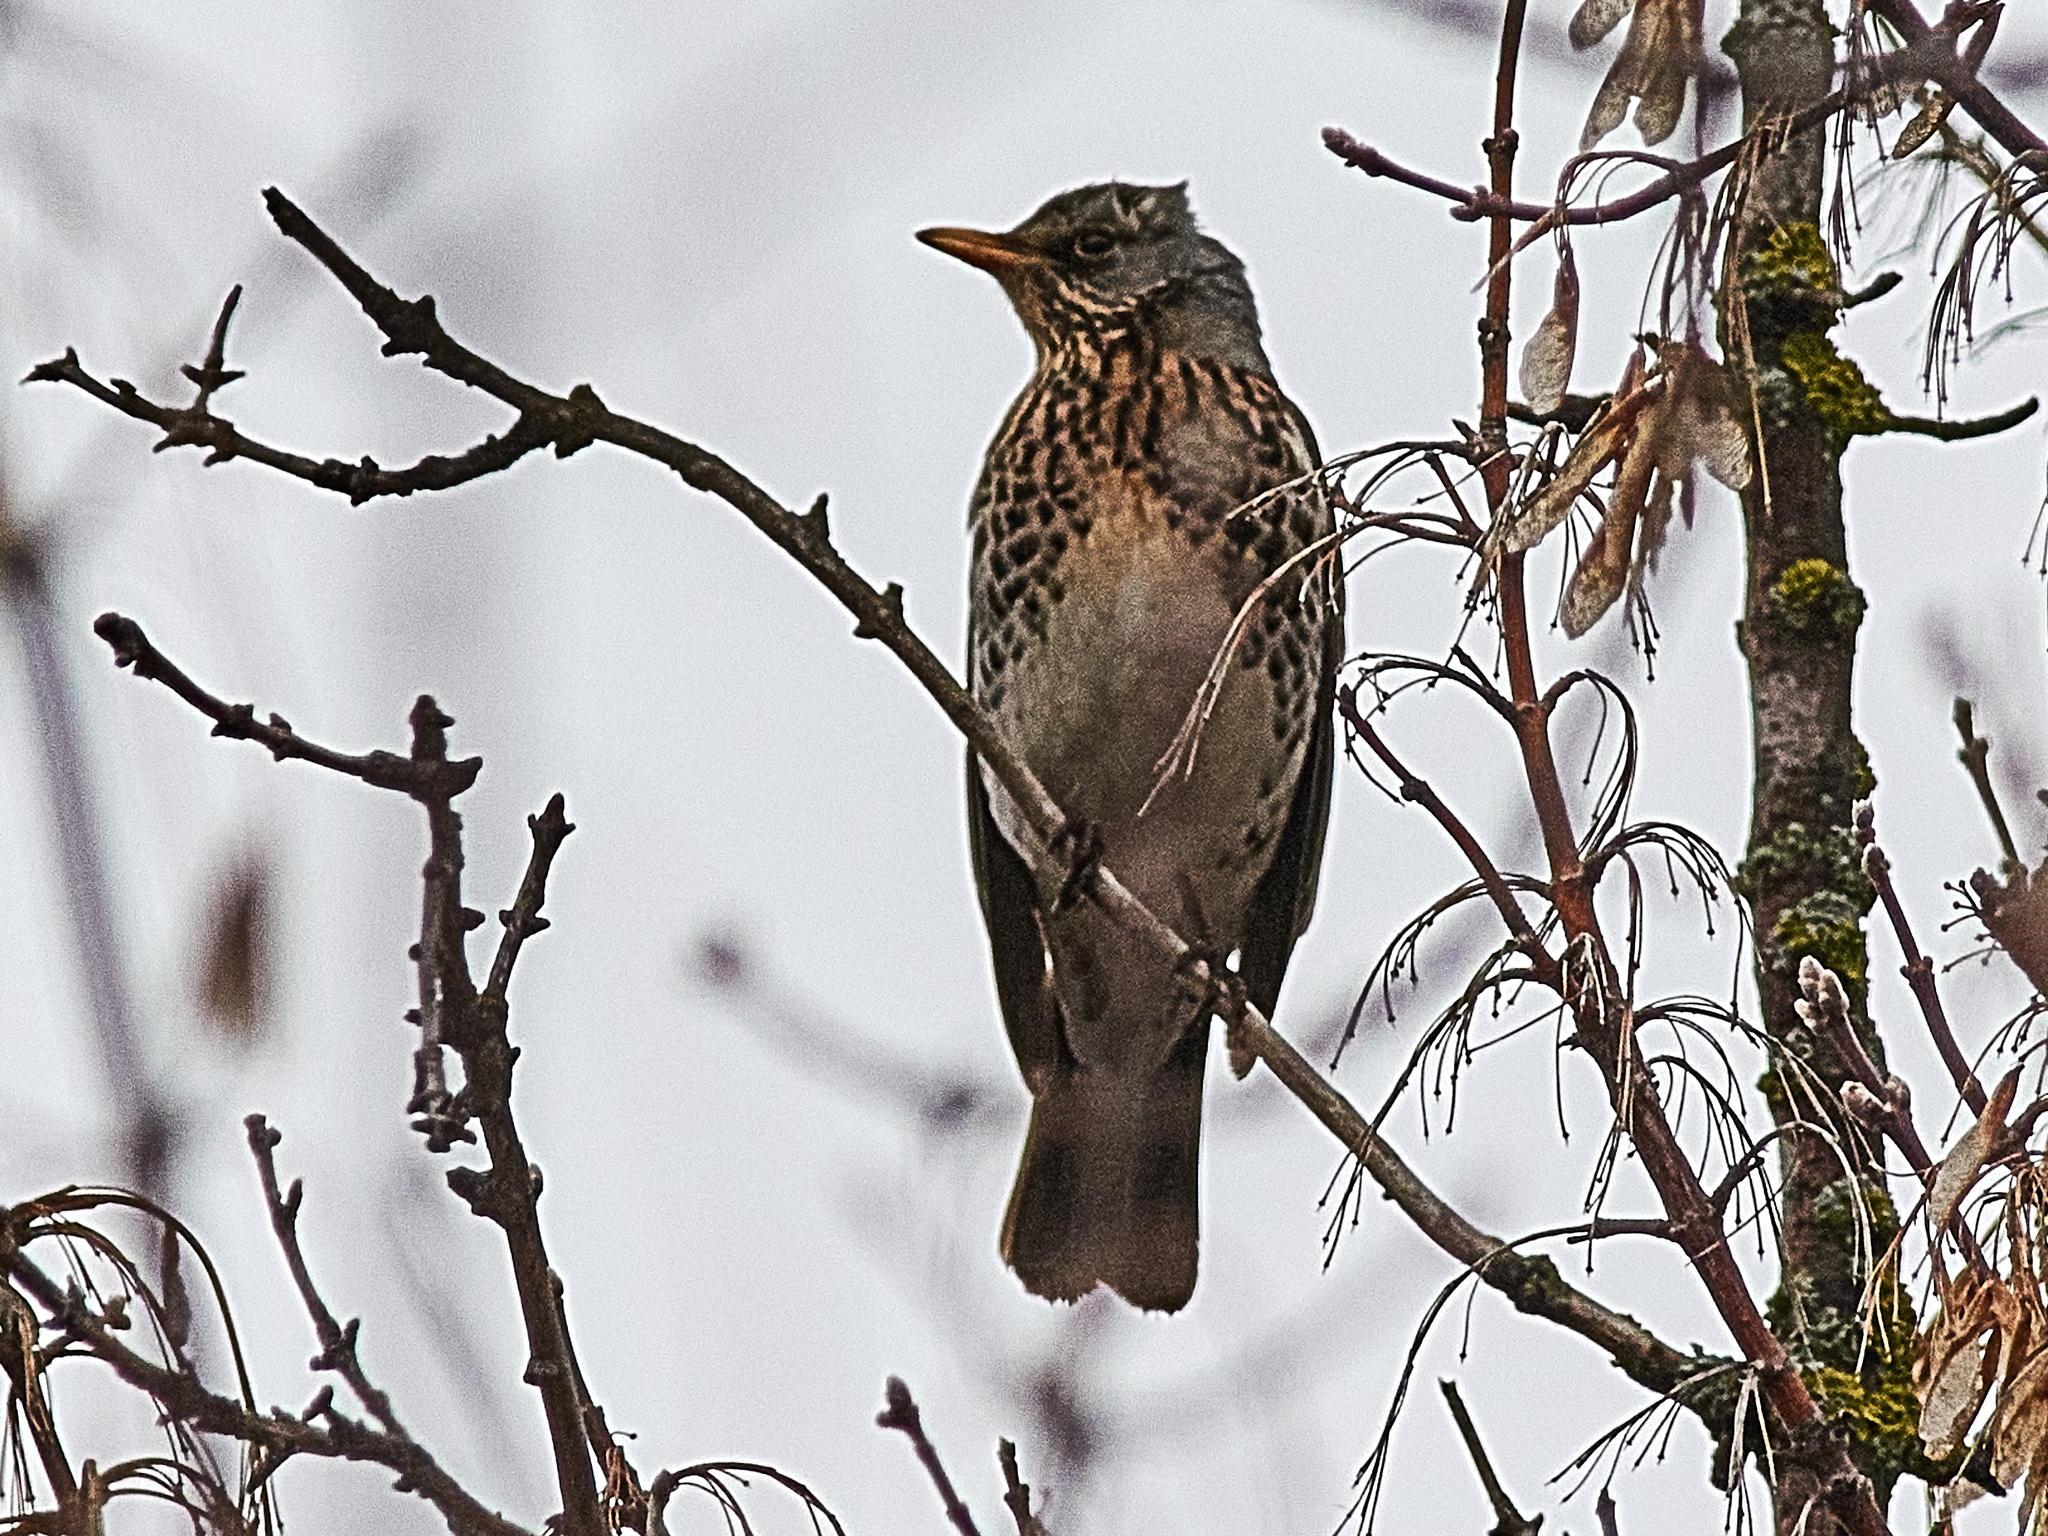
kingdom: Animalia
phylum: Chordata
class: Aves
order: Passeriformes
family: Turdidae
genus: Turdus
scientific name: Turdus pilaris
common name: Fieldfare
